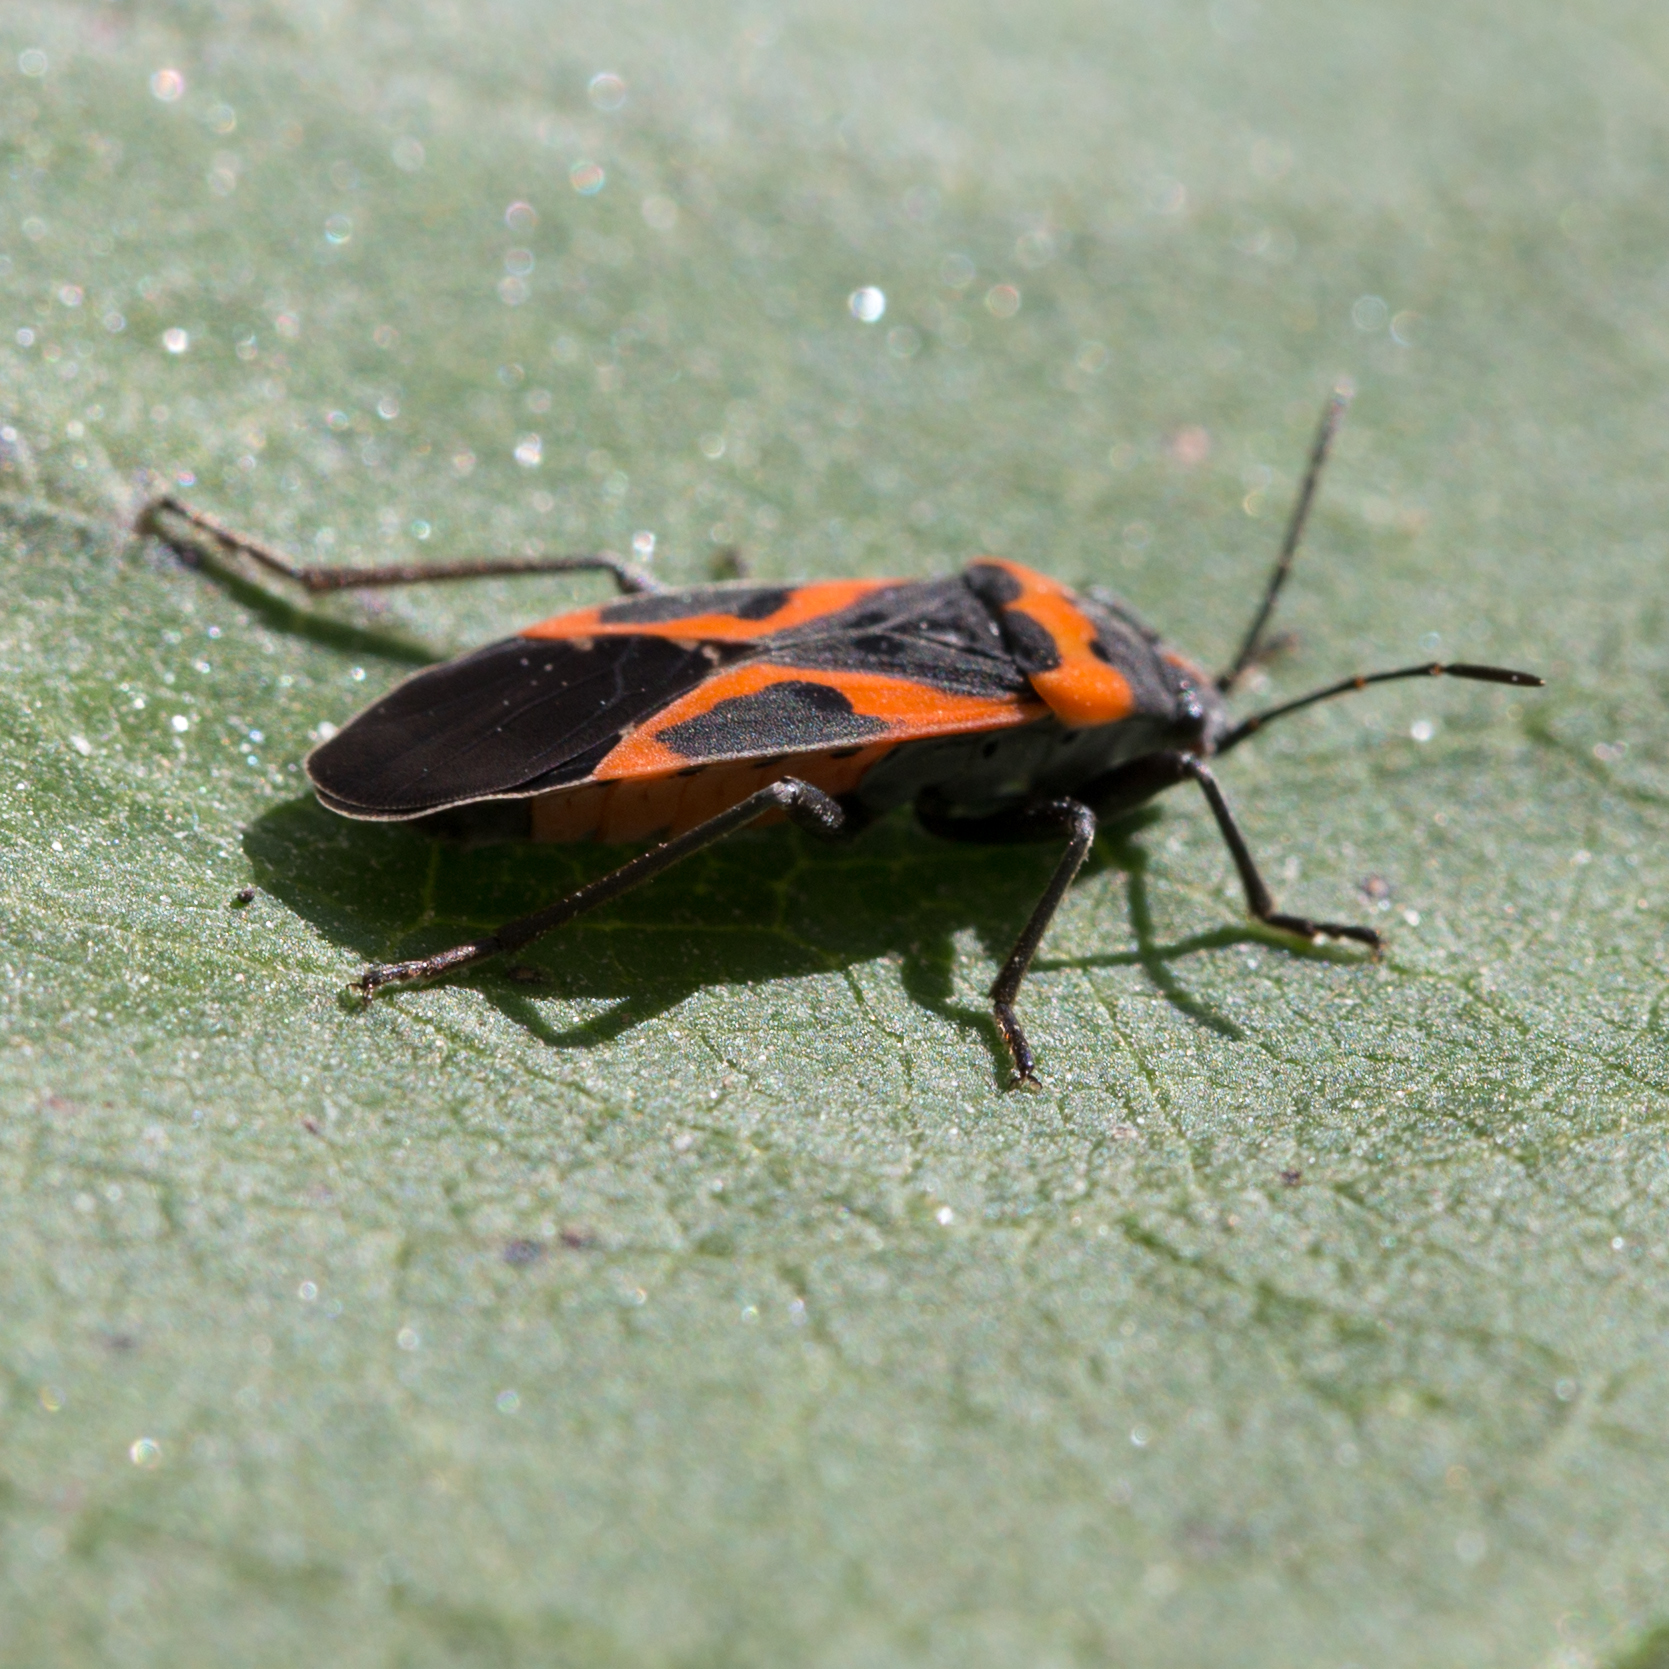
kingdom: Animalia
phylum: Arthropoda
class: Insecta
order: Hemiptera
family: Lygaeidae
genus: Lygaeus
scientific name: Lygaeus kalmii
